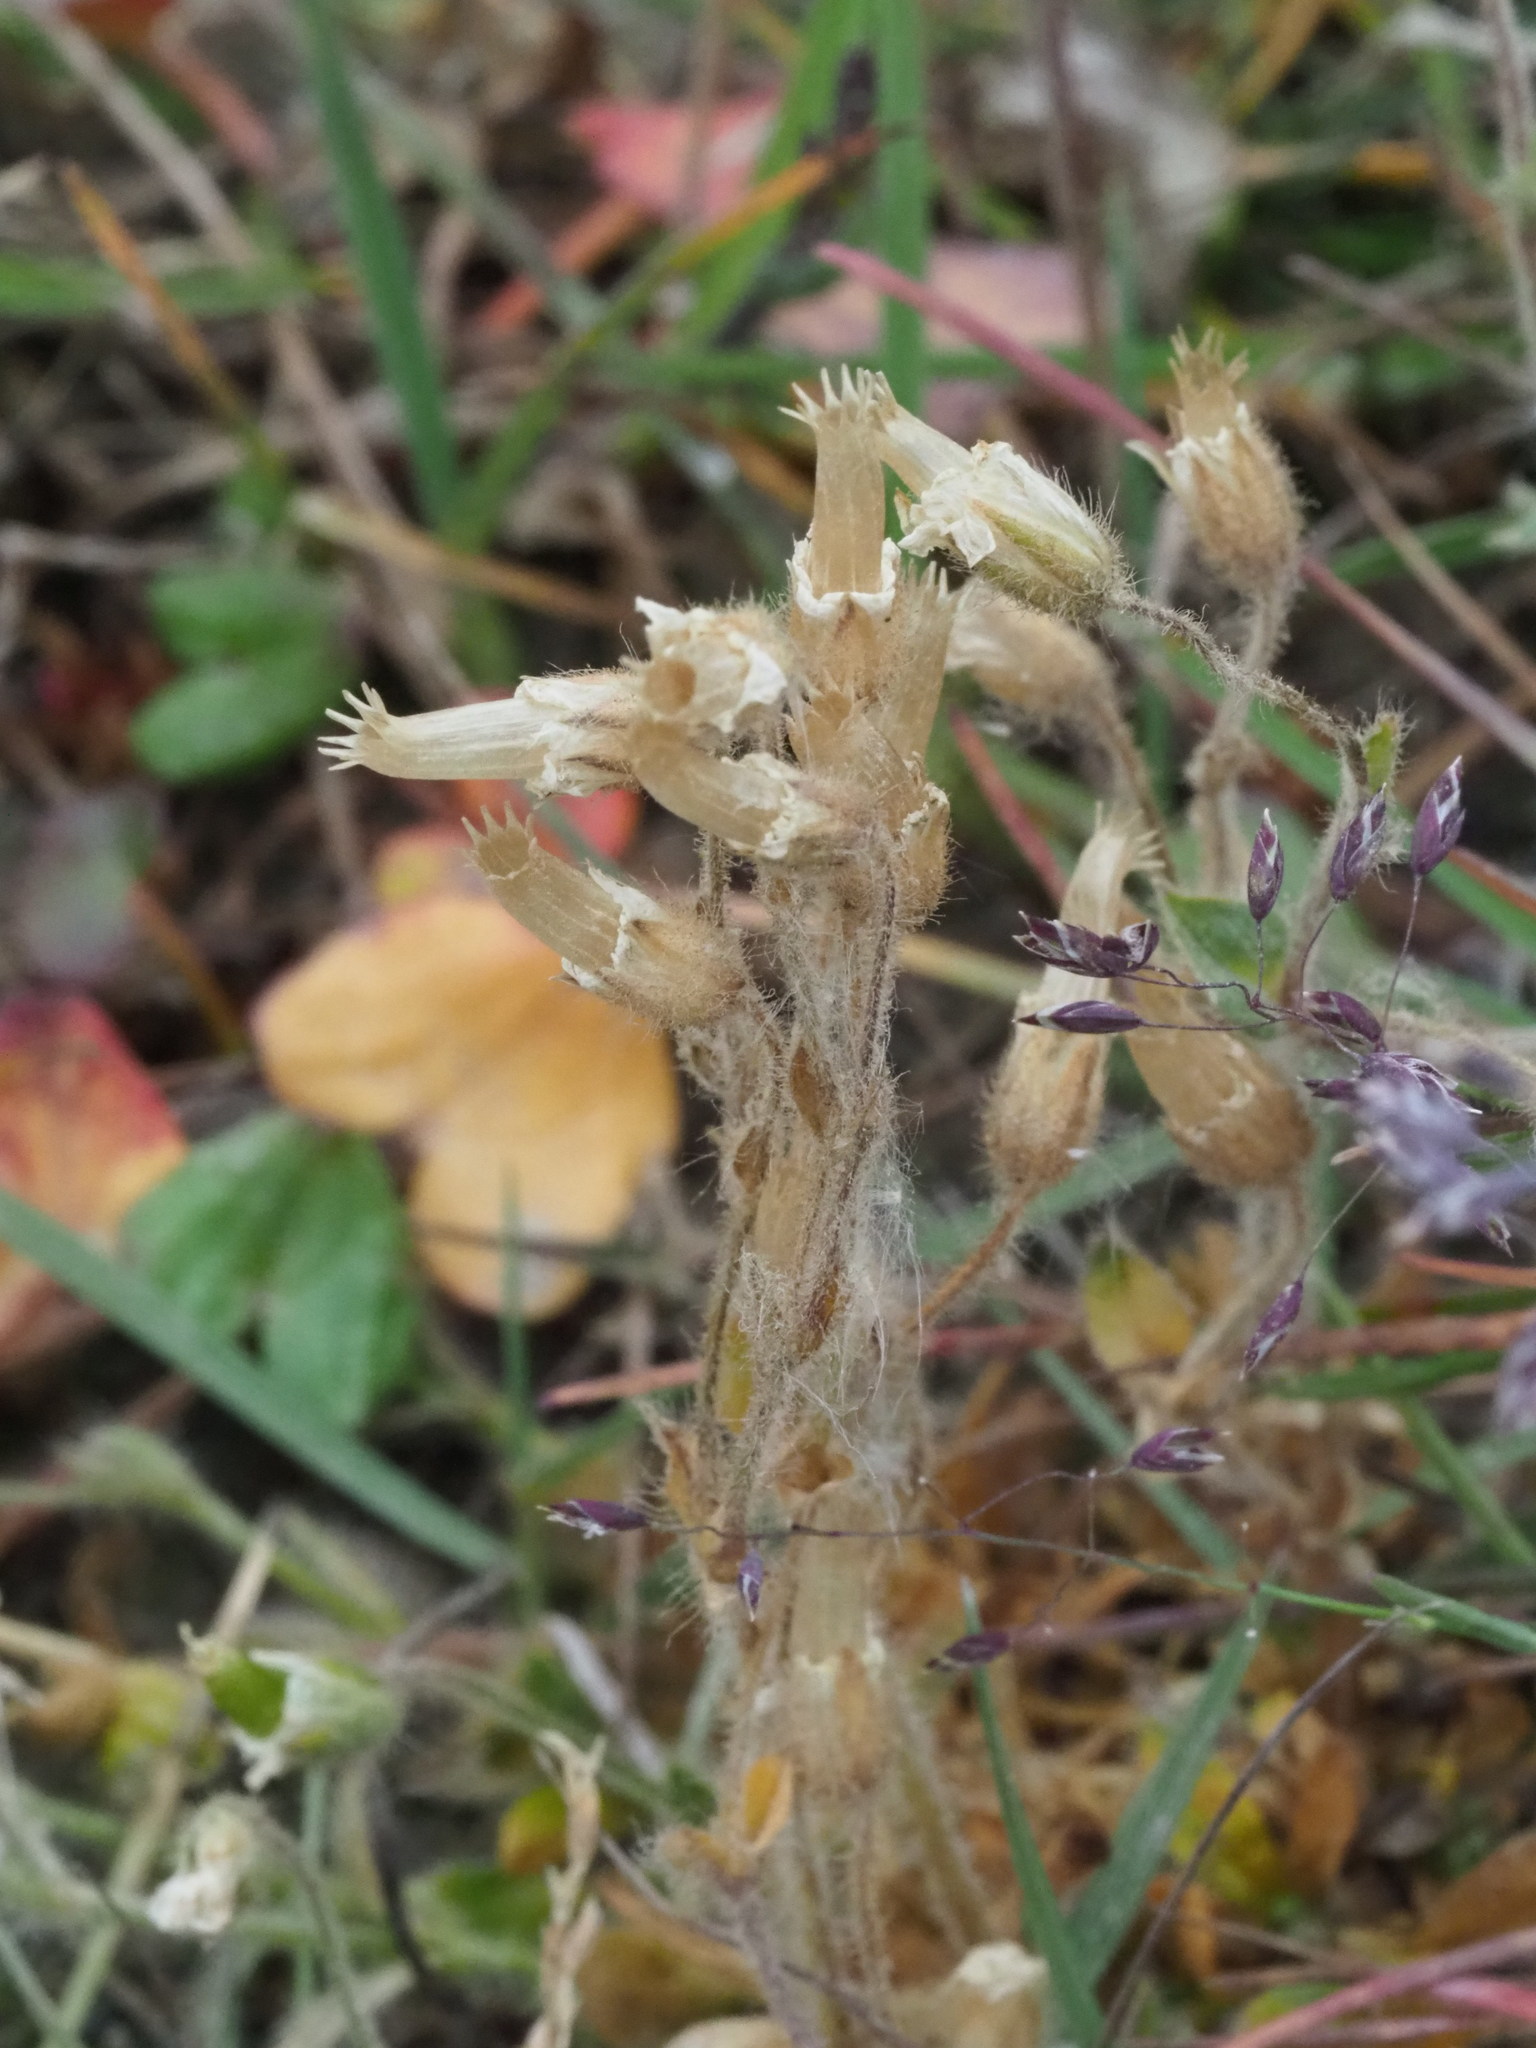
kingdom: Plantae
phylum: Tracheophyta
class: Magnoliopsida
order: Caryophyllales
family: Caryophyllaceae
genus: Cerastium
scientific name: Cerastium arcticum
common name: Arctic mouse-ear
